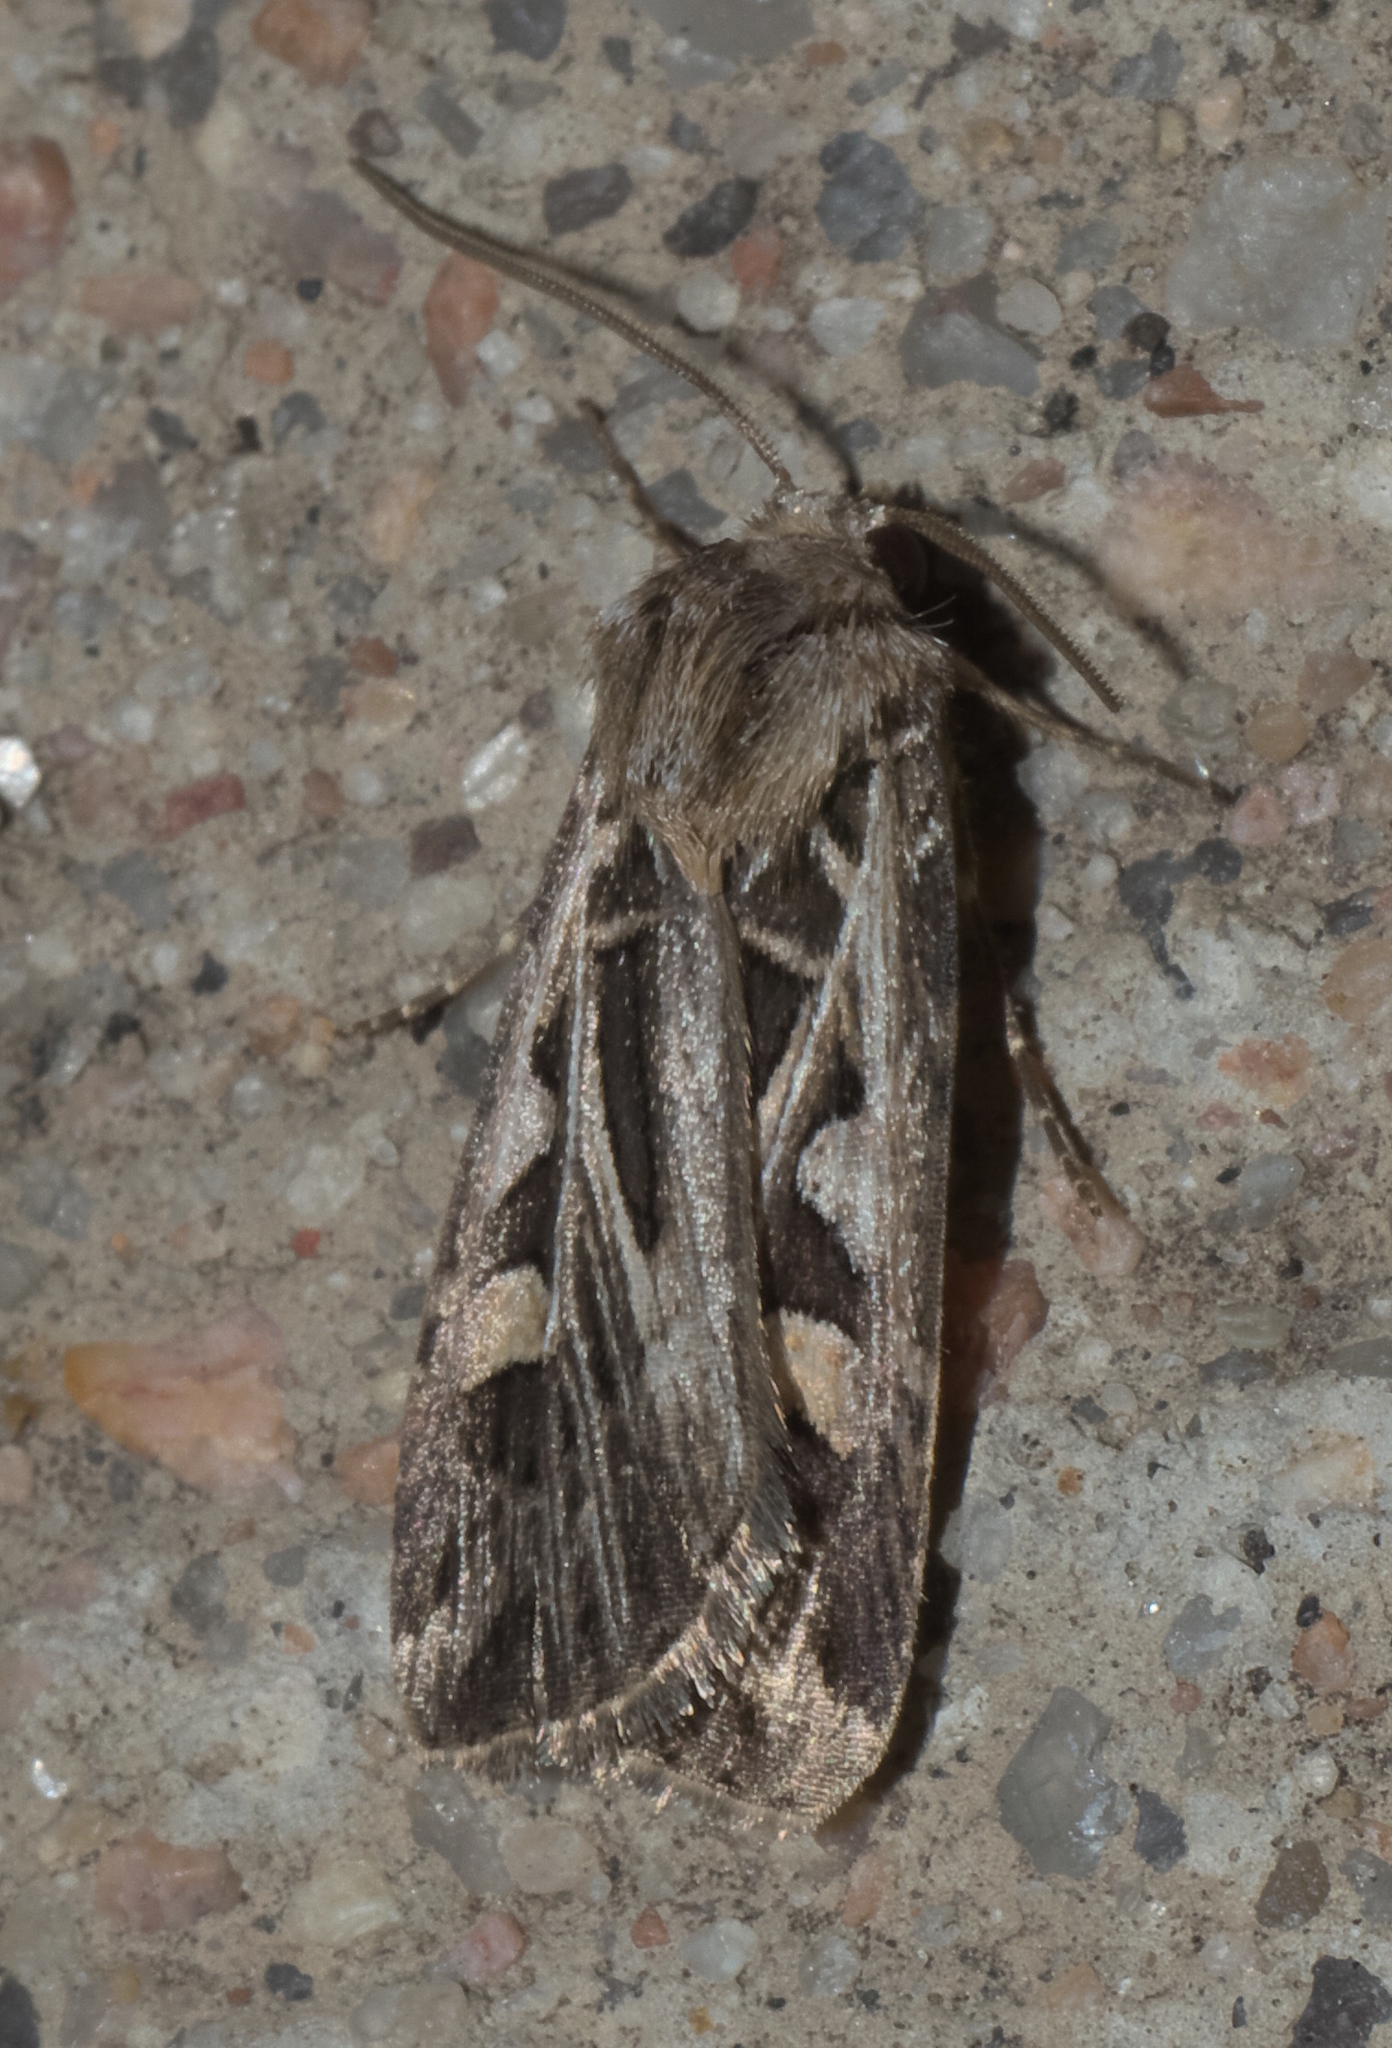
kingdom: Animalia
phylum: Arthropoda
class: Insecta
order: Lepidoptera
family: Noctuidae
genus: Feltia
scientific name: Feltia jaculifera
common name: Dingy cutworm moth
